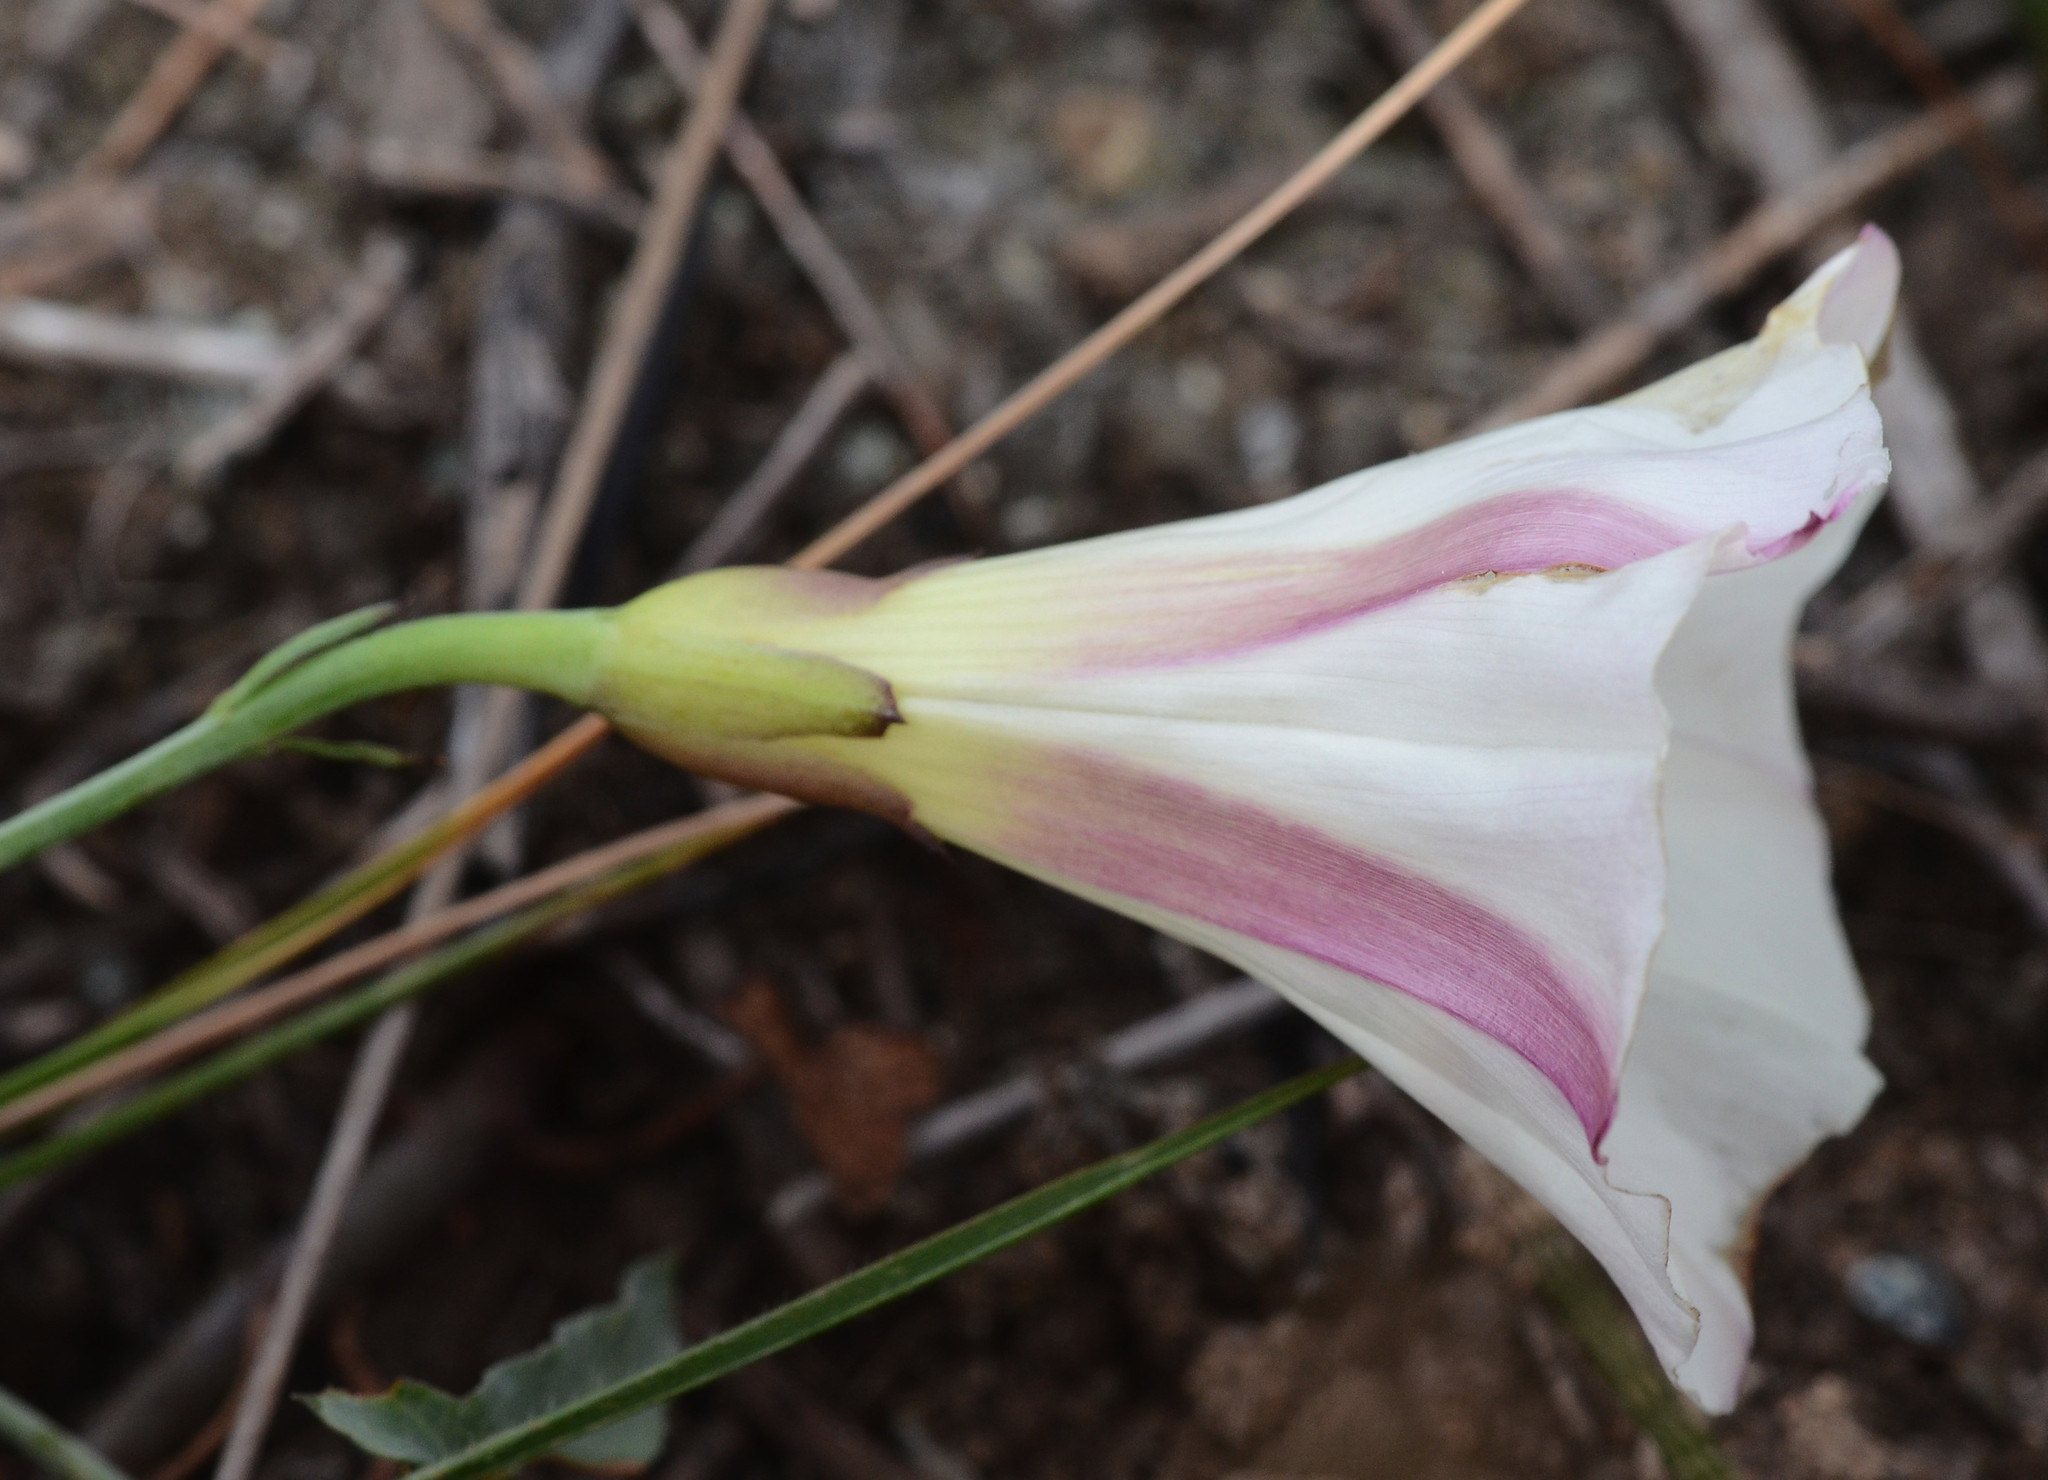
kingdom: Plantae
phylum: Tracheophyta
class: Magnoliopsida
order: Solanales
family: Convolvulaceae
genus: Calystegia
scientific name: Calystegia purpurata
